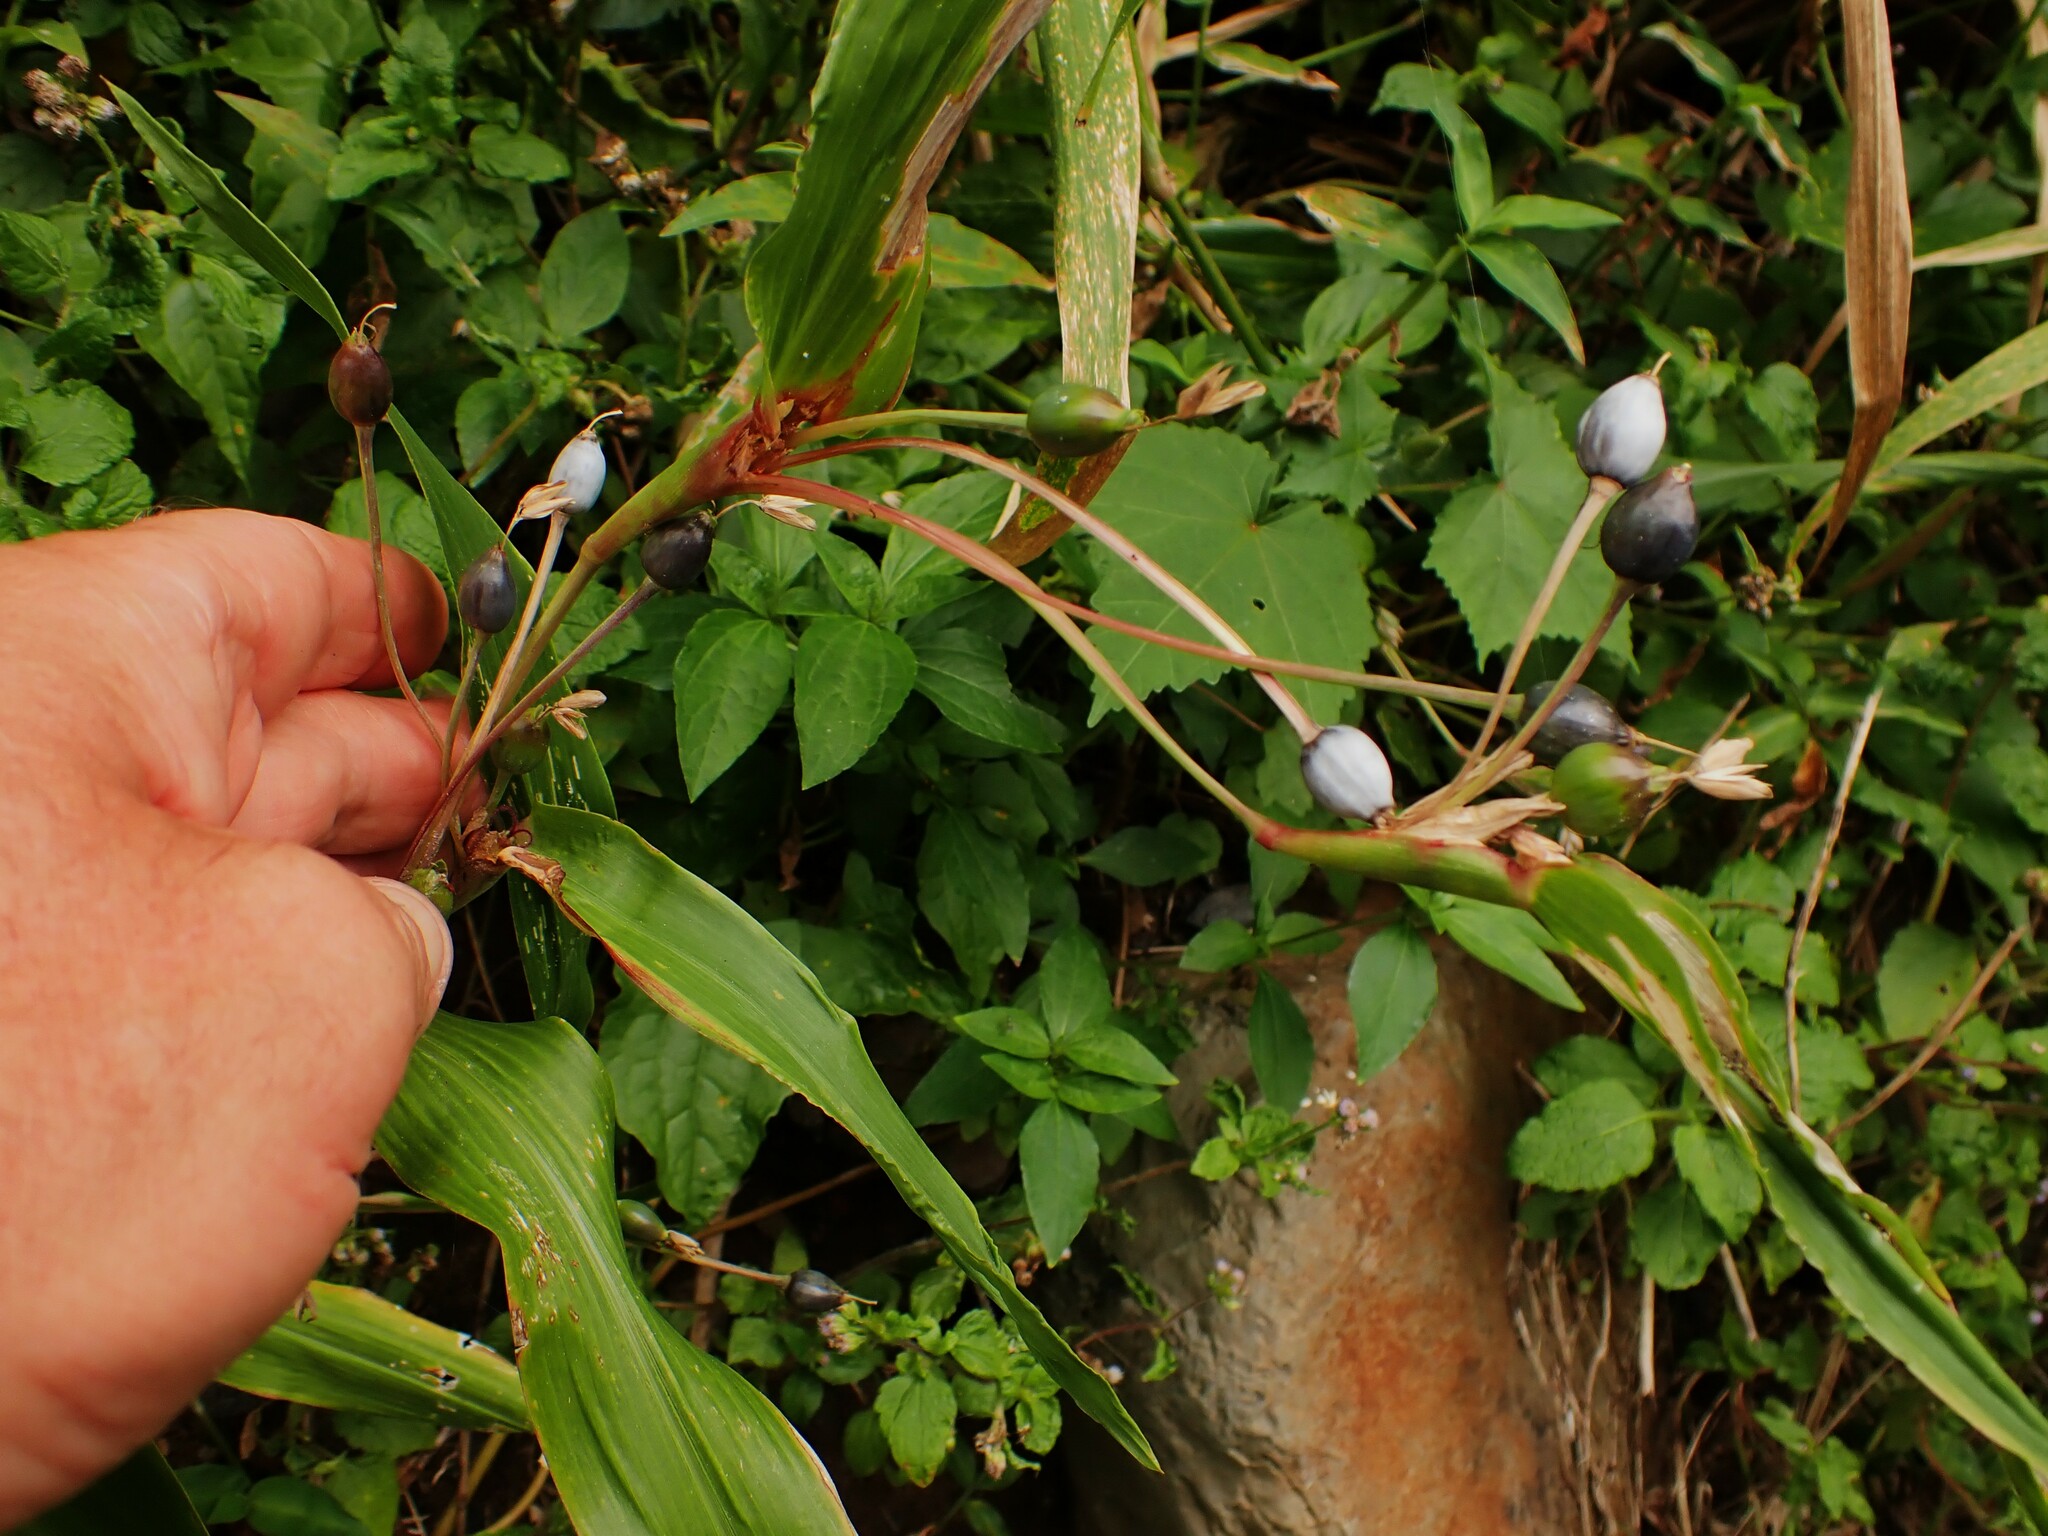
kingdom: Plantae
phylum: Tracheophyta
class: Liliopsida
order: Poales
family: Poaceae
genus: Coix
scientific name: Coix lacryma-jobi
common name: Job's tears
